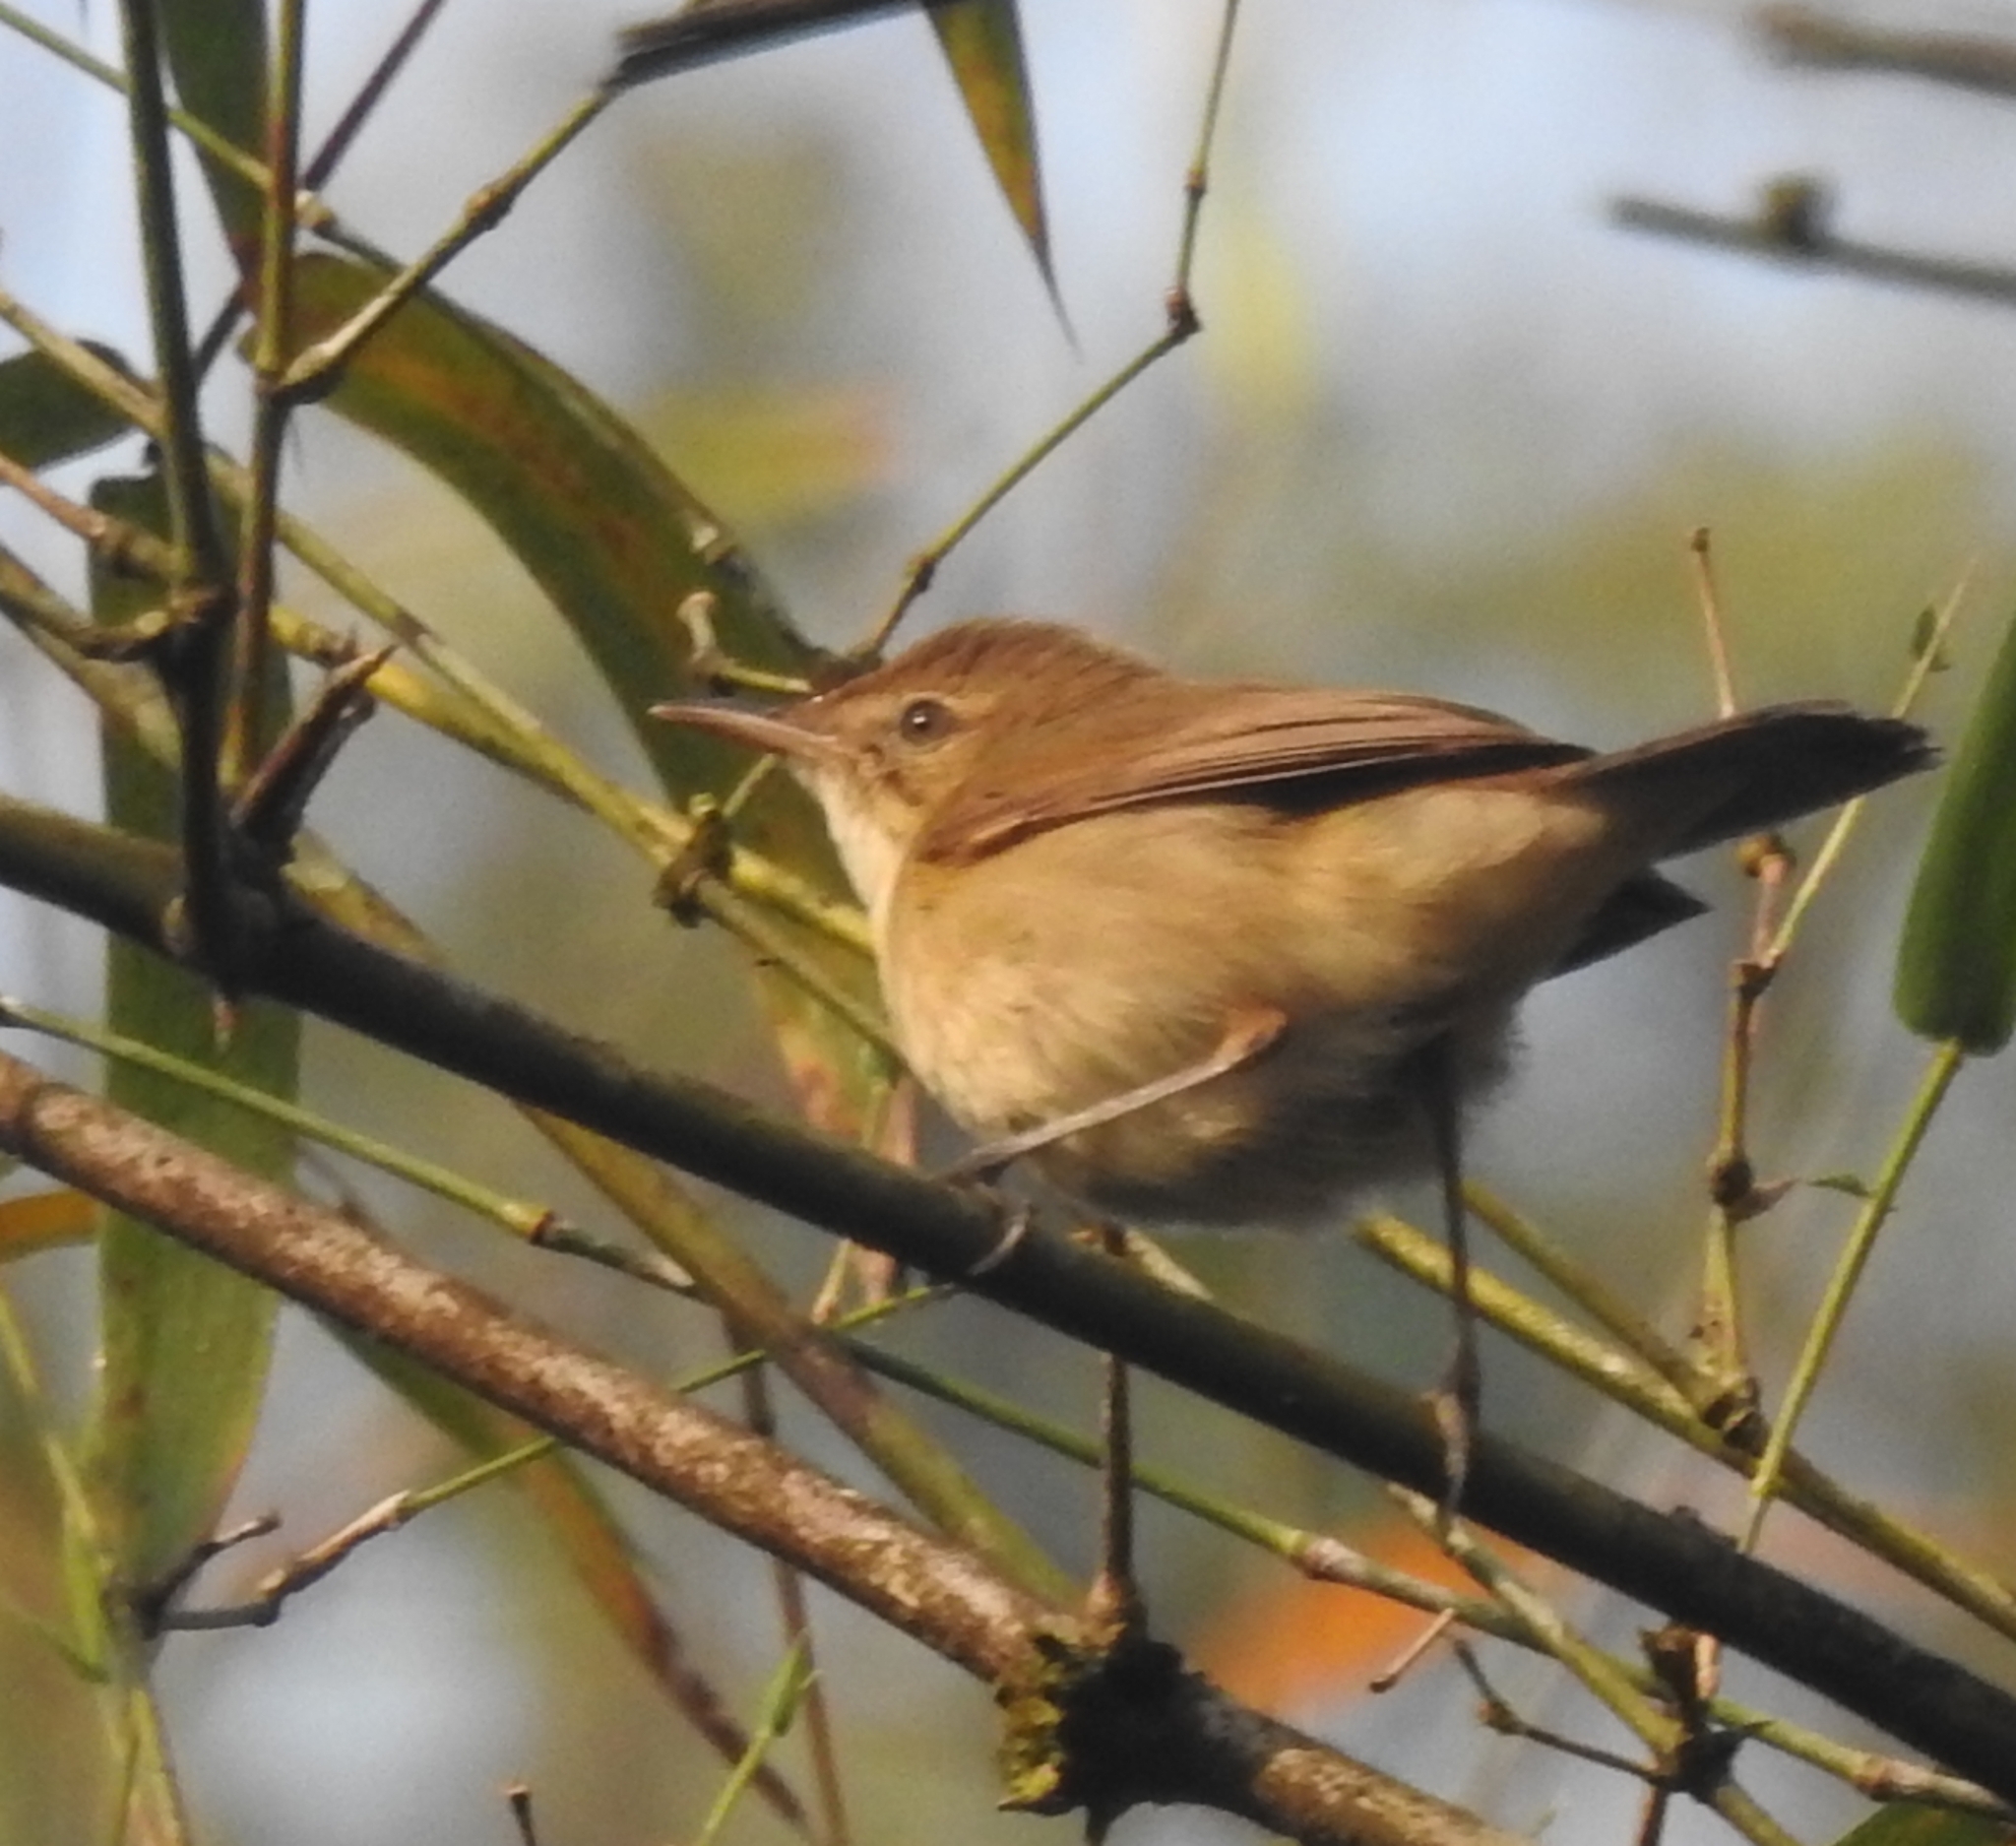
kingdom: Animalia
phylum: Chordata
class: Aves
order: Passeriformes
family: Acrocephalidae
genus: Acrocephalus
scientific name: Acrocephalus dumetorum
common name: Blyth's reed warbler
